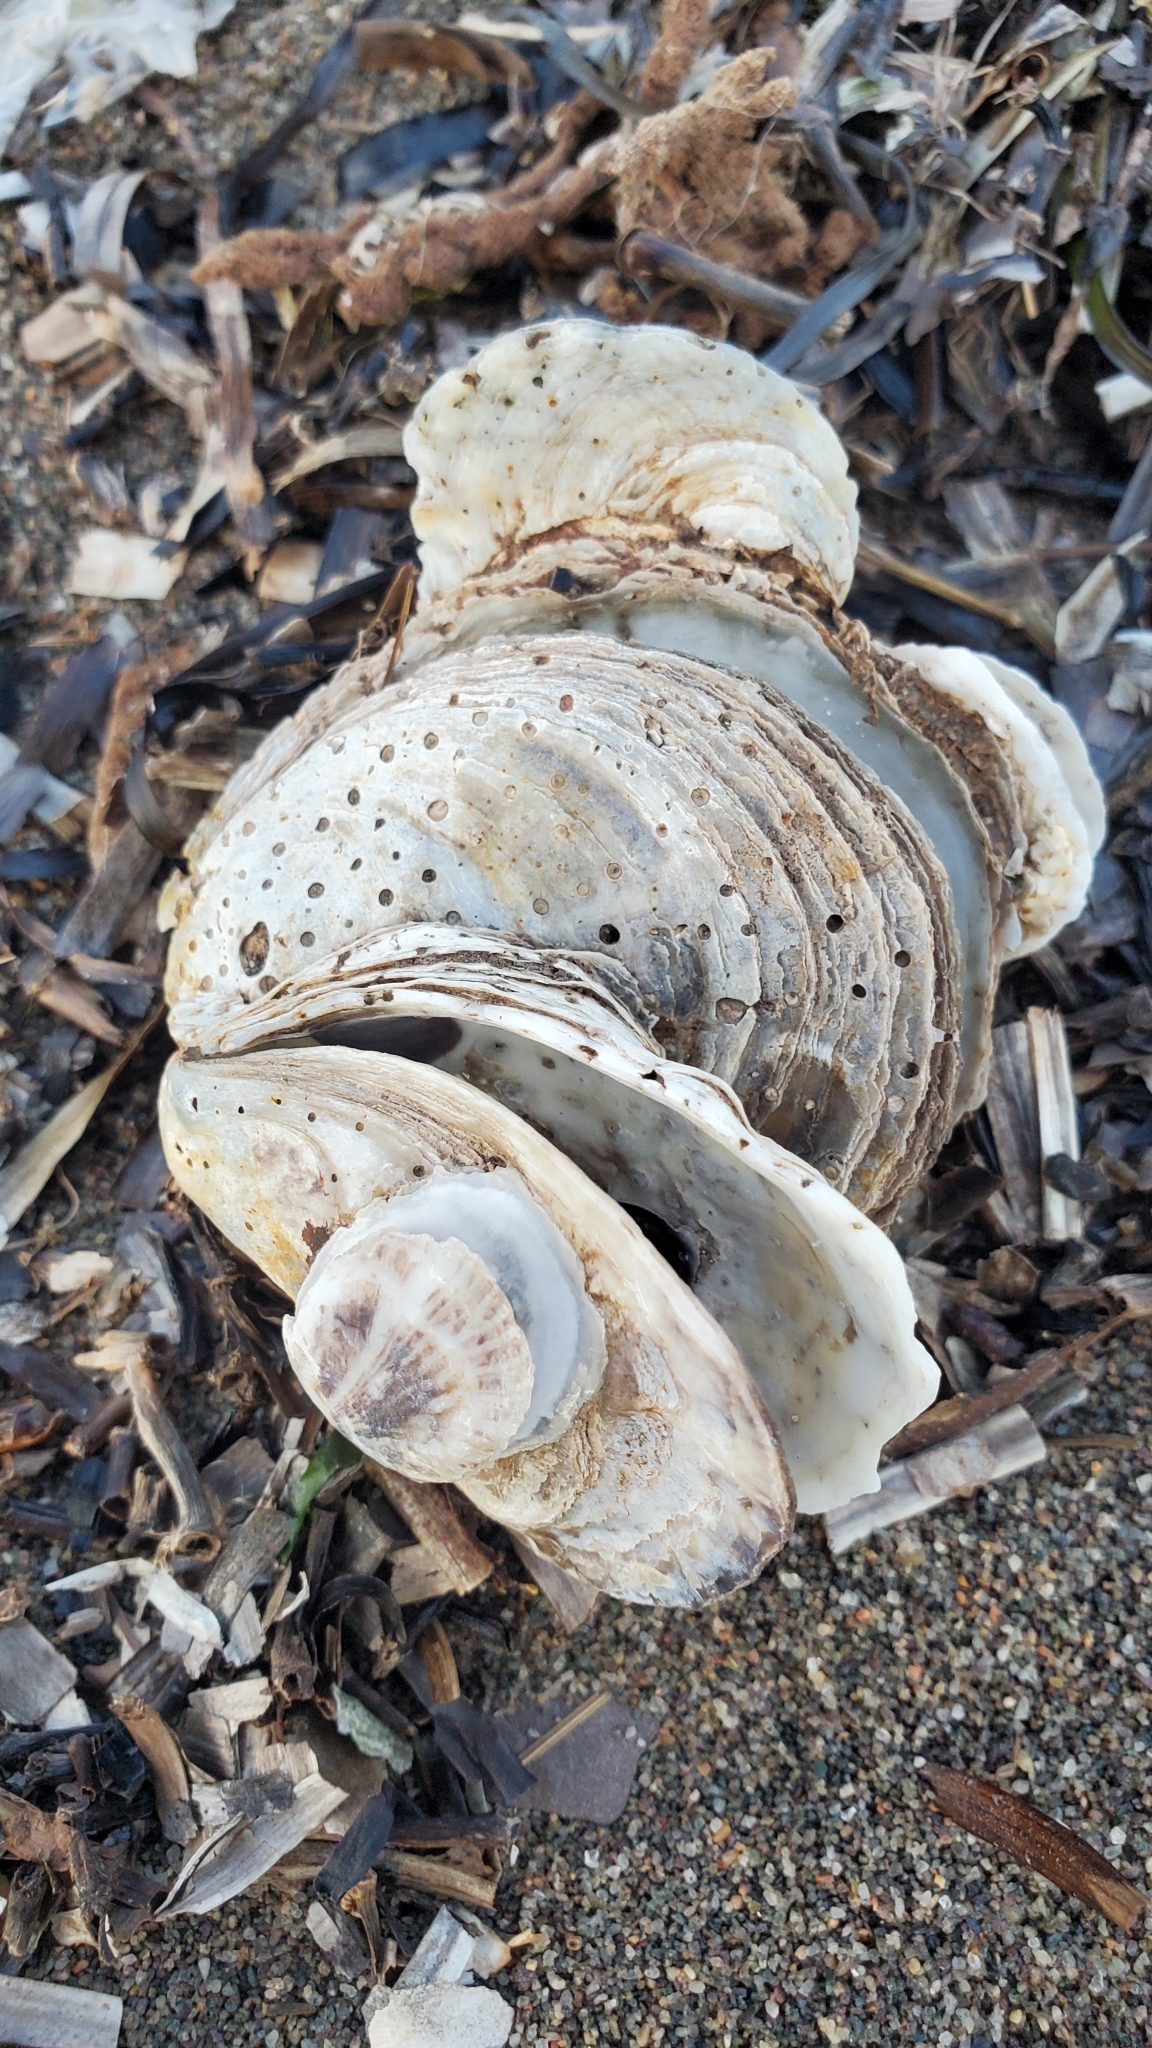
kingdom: Animalia
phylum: Mollusca
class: Bivalvia
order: Ostreida
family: Ostreidae
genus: Crassostrea
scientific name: Crassostrea virginica
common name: American oyster
